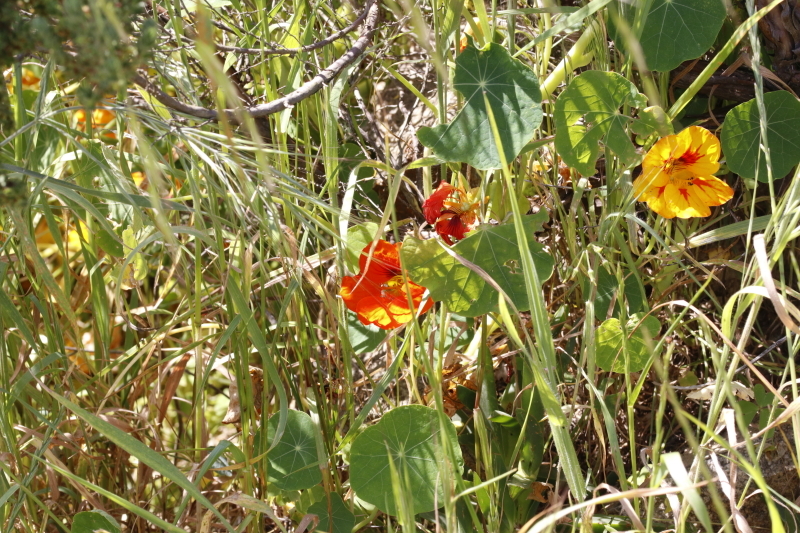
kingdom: Plantae
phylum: Tracheophyta
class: Magnoliopsida
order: Brassicales
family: Tropaeolaceae
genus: Tropaeolum
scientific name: Tropaeolum majus
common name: Nasturtium
